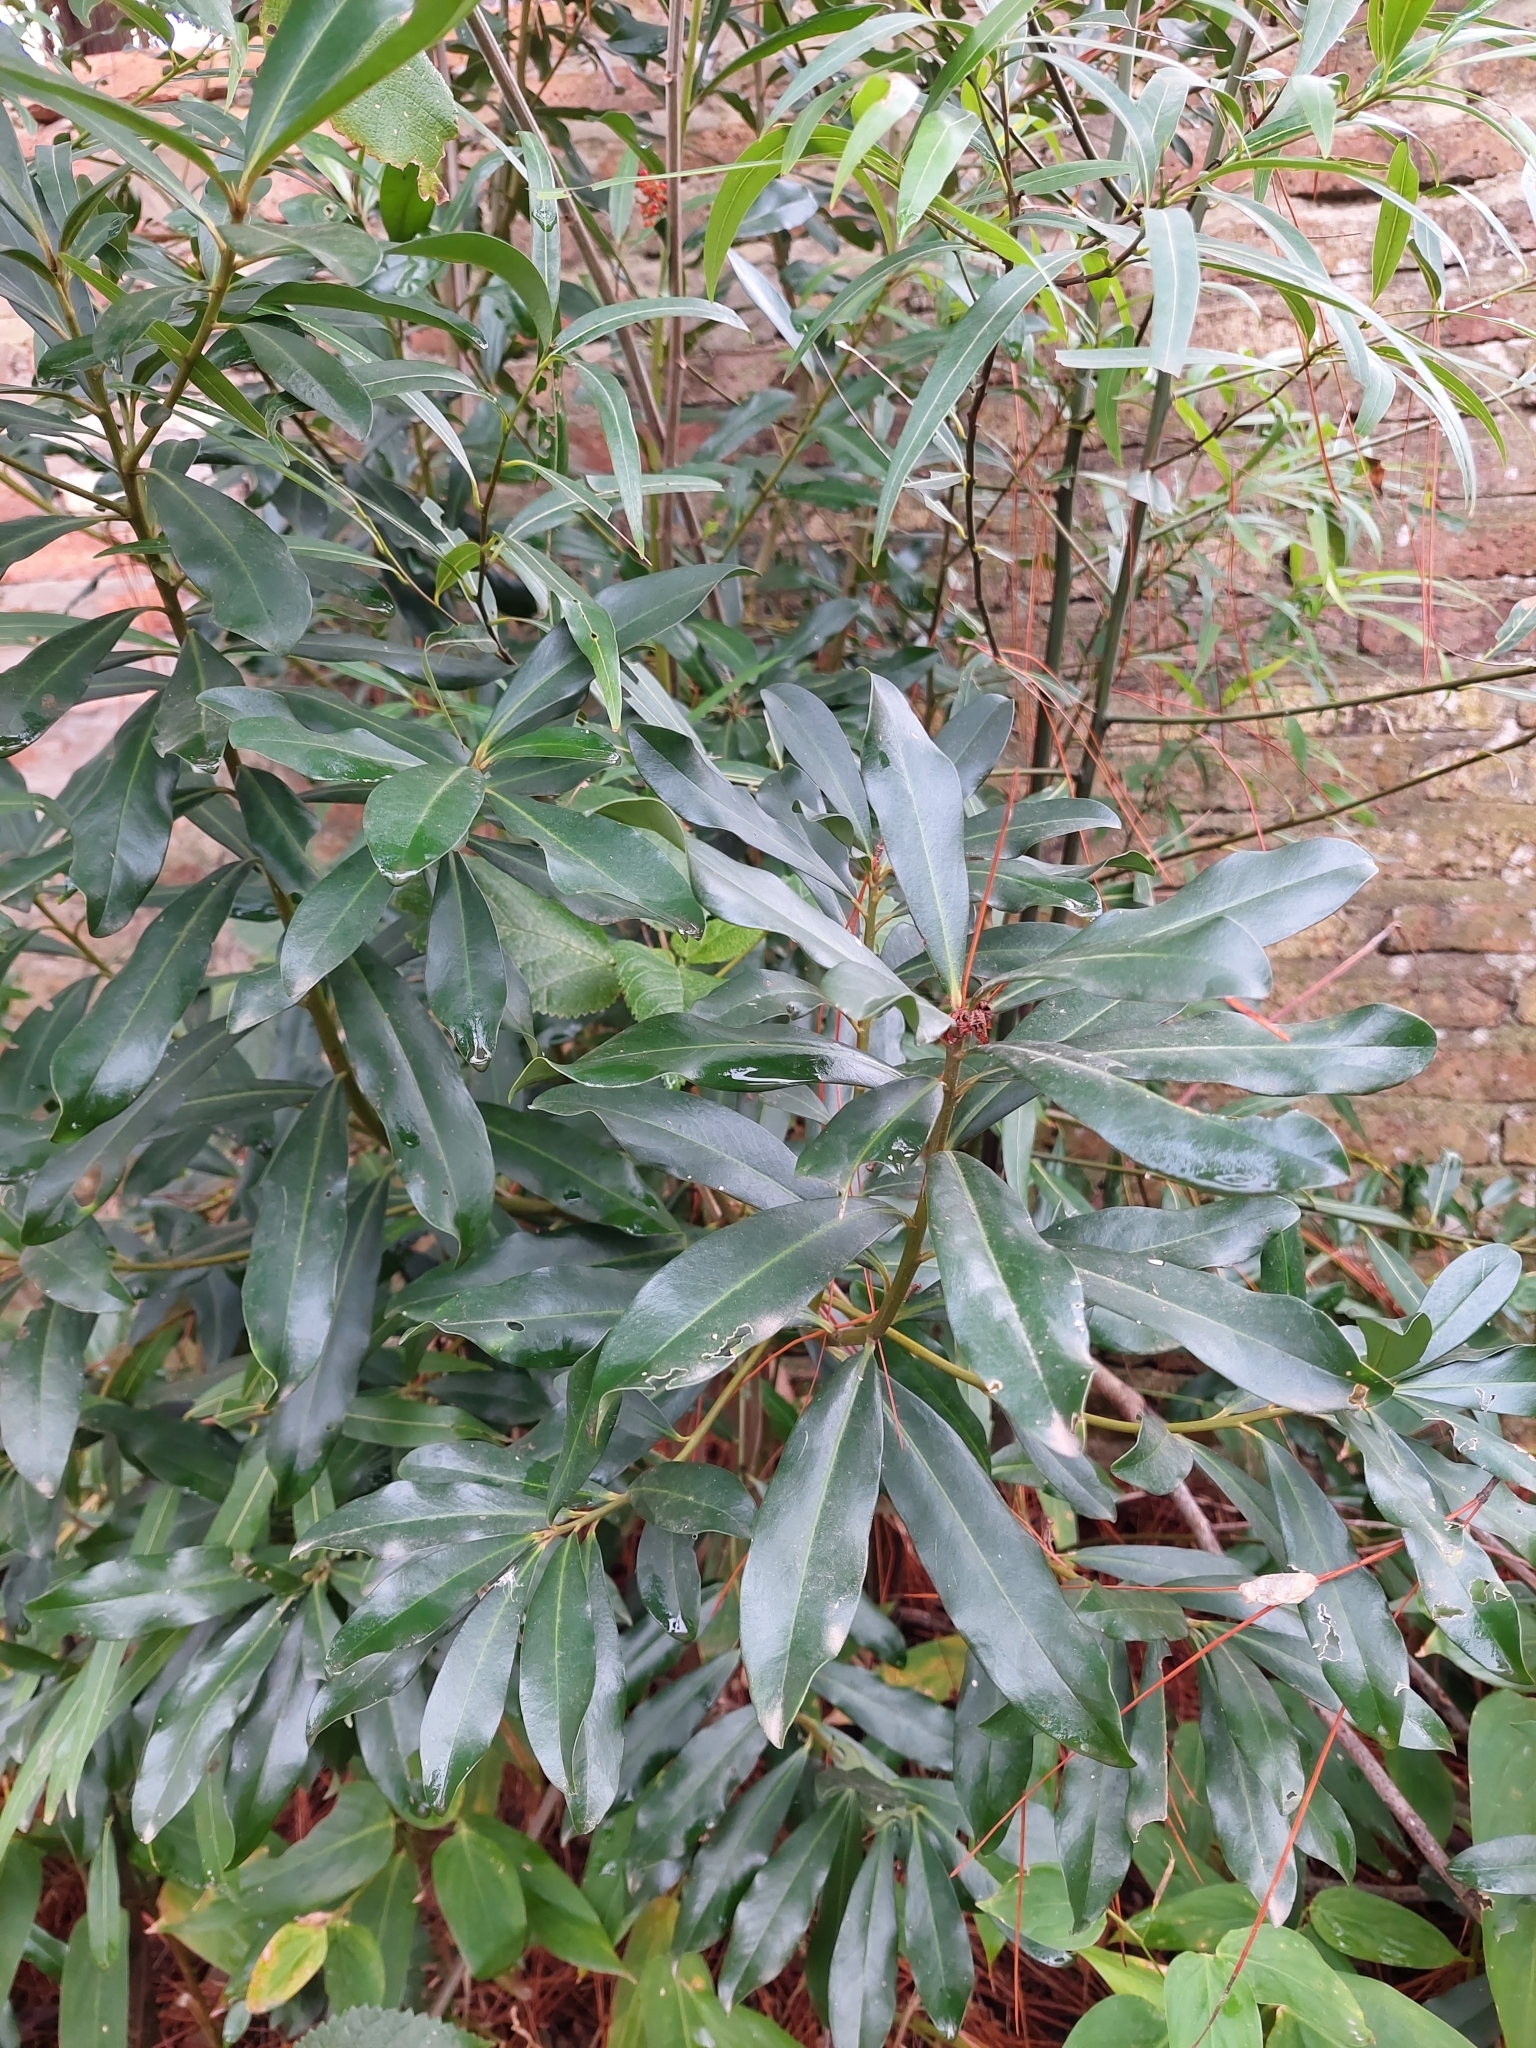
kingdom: Plantae
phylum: Tracheophyta
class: Magnoliopsida
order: Ericales
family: Primulaceae
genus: Myrsine
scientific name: Myrsine laetevirens
